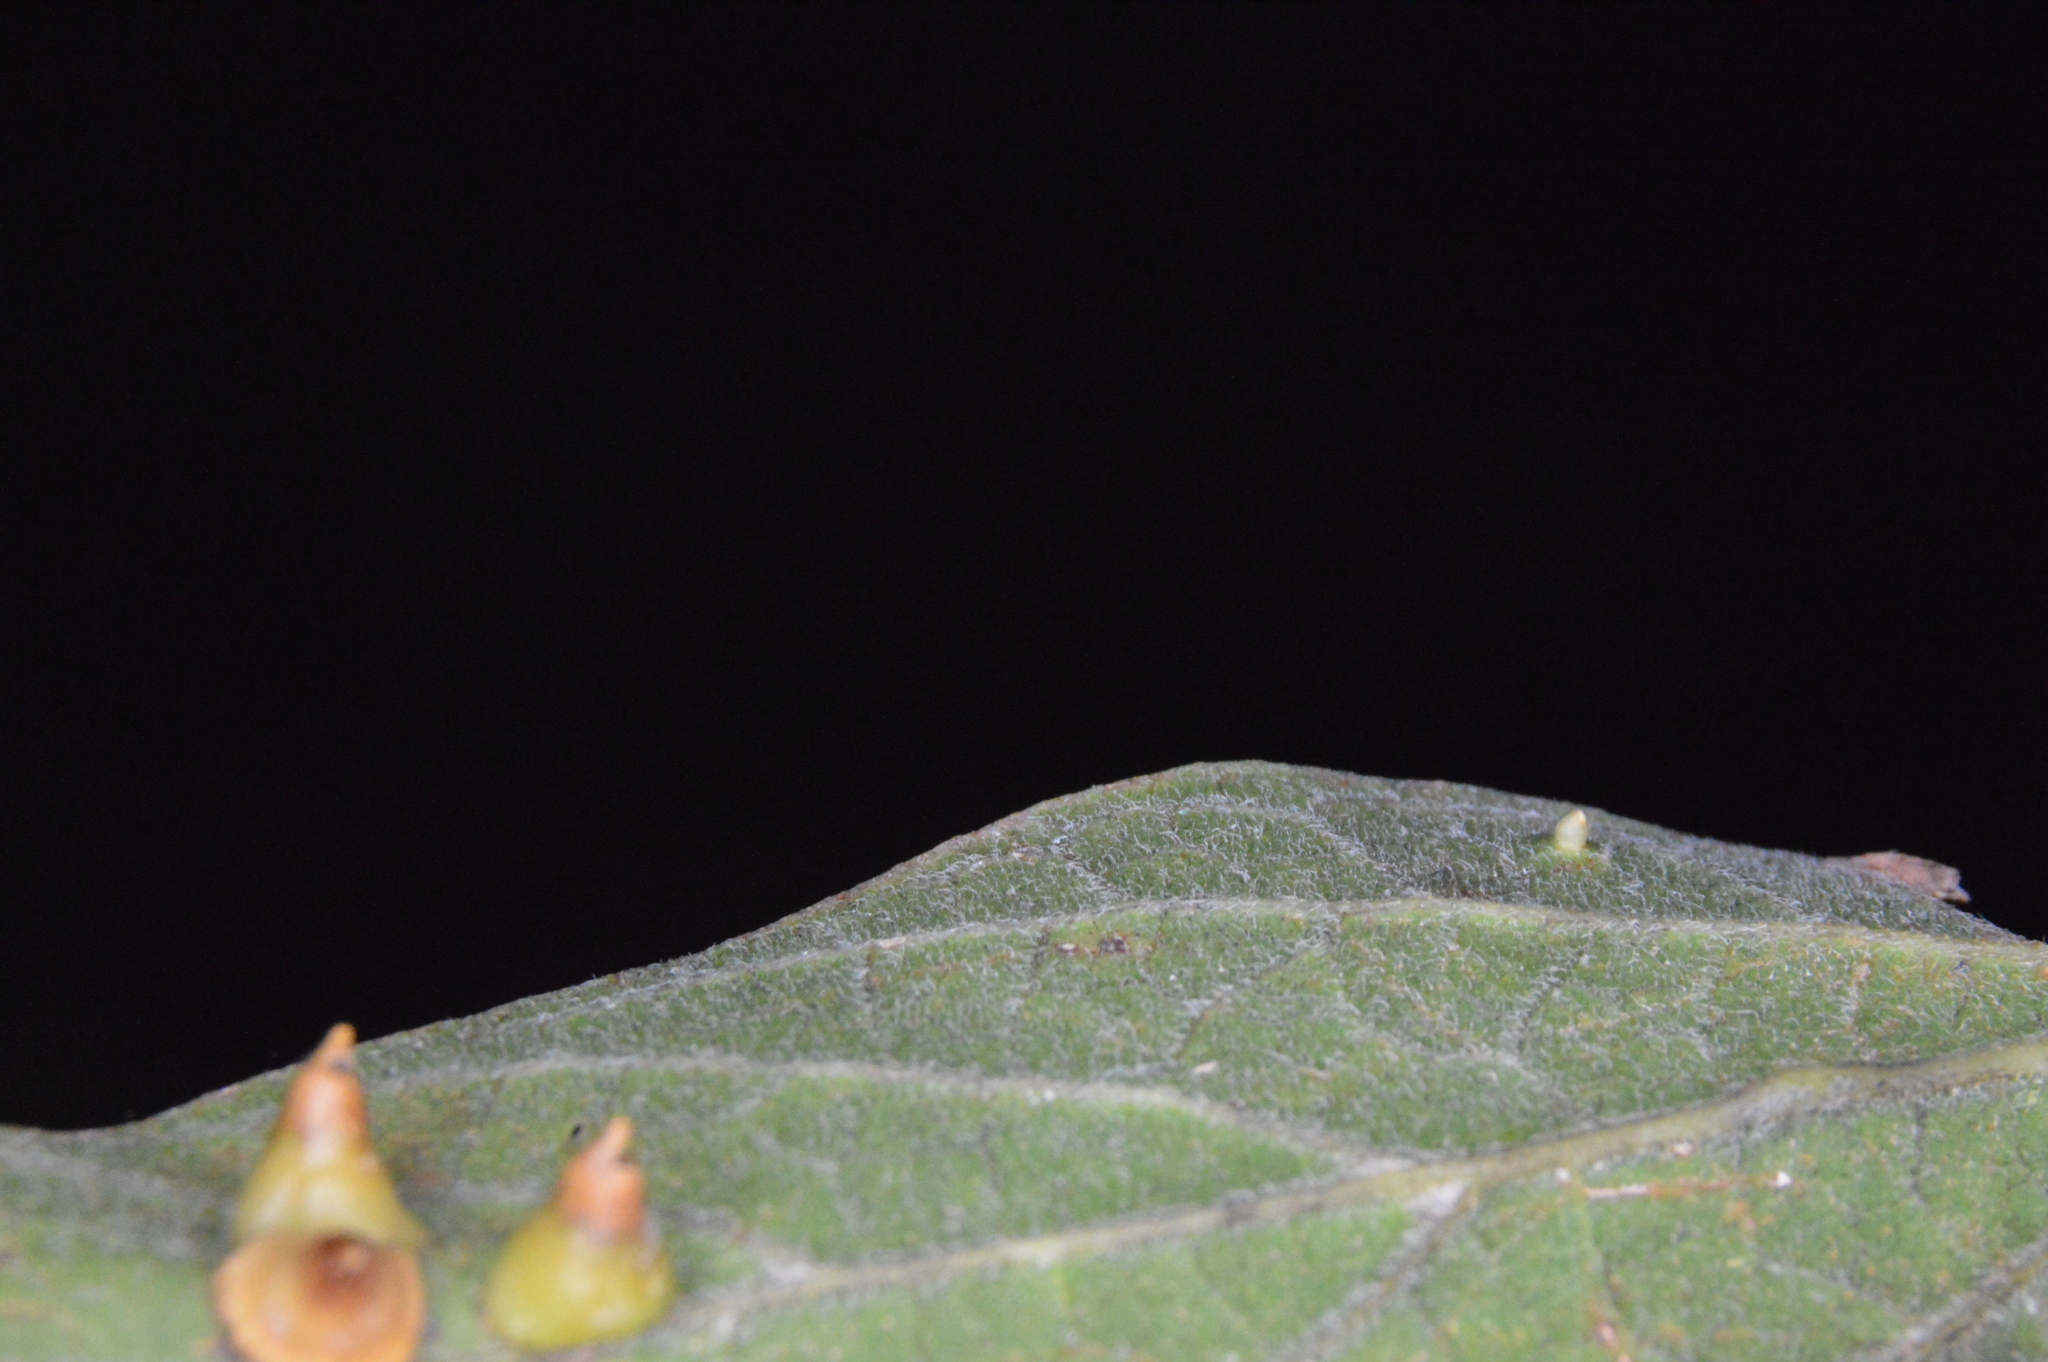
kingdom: Animalia
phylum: Arthropoda
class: Insecta
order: Diptera
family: Cecidomyiidae
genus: Celticecis
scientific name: Celticecis cupiformis
